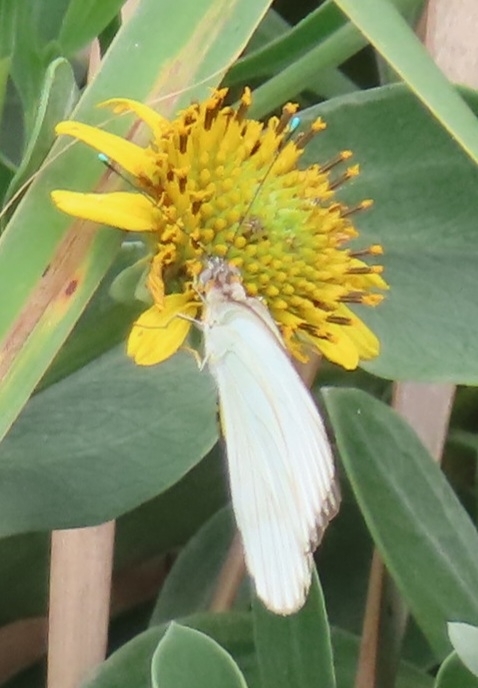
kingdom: Animalia
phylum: Arthropoda
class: Insecta
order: Lepidoptera
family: Pieridae
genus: Ascia
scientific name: Ascia monuste
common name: Great southern white
